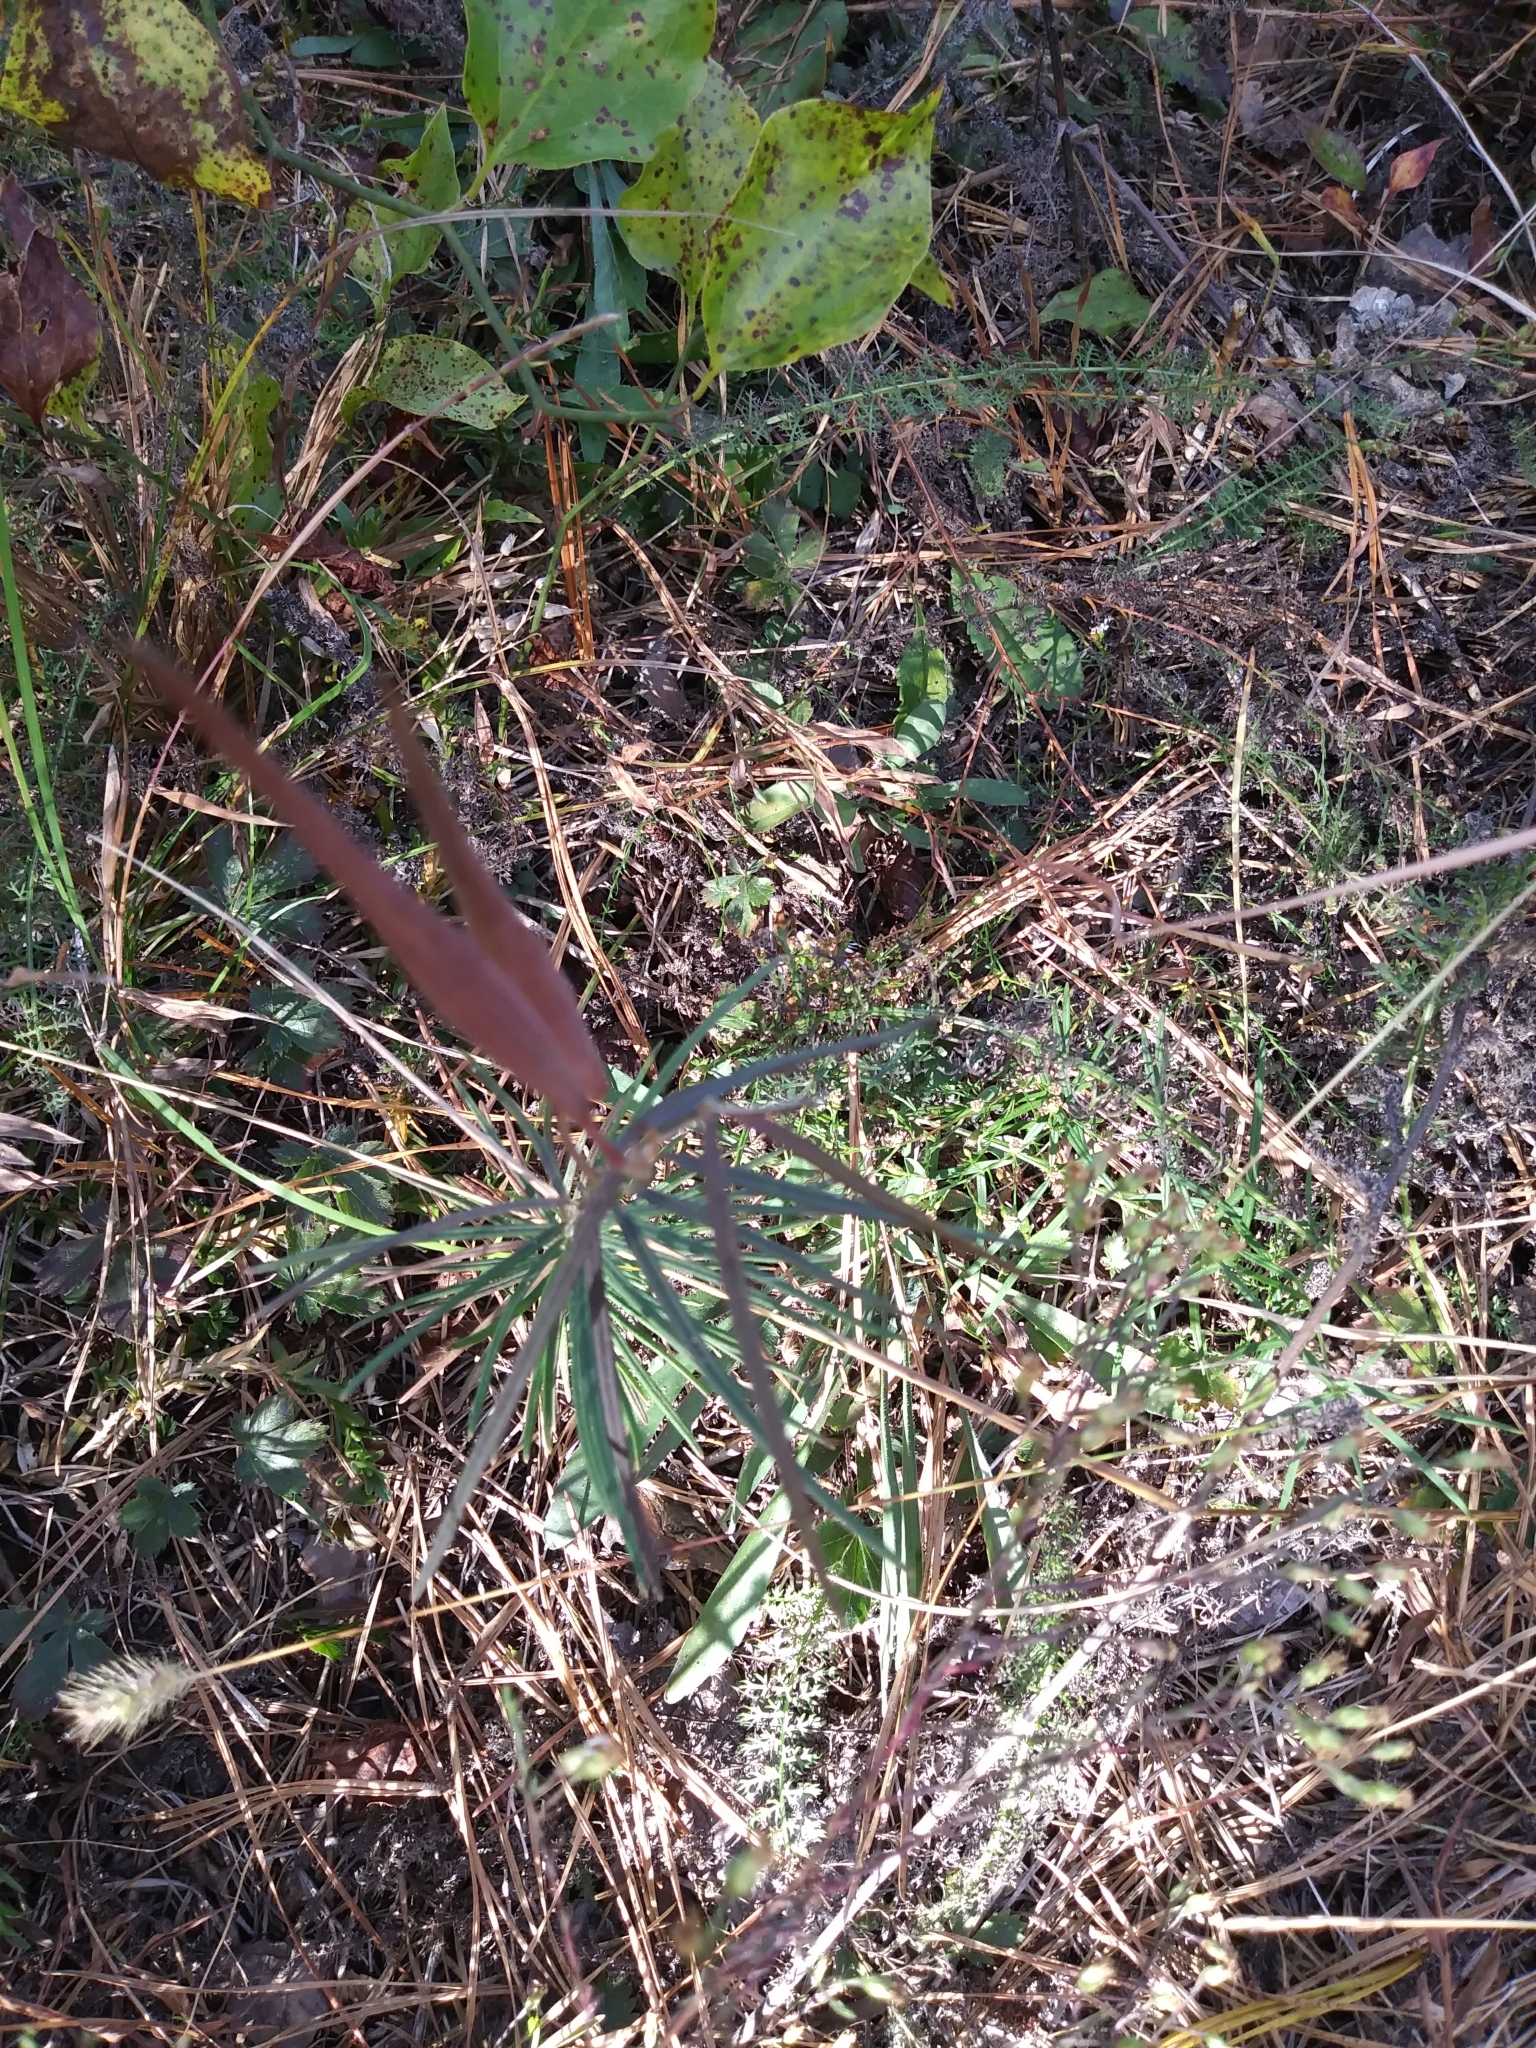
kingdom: Plantae
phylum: Tracheophyta
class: Magnoliopsida
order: Gentianales
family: Apocynaceae
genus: Asclepias
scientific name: Asclepias verticillata
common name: Eastern whorled milkweed
